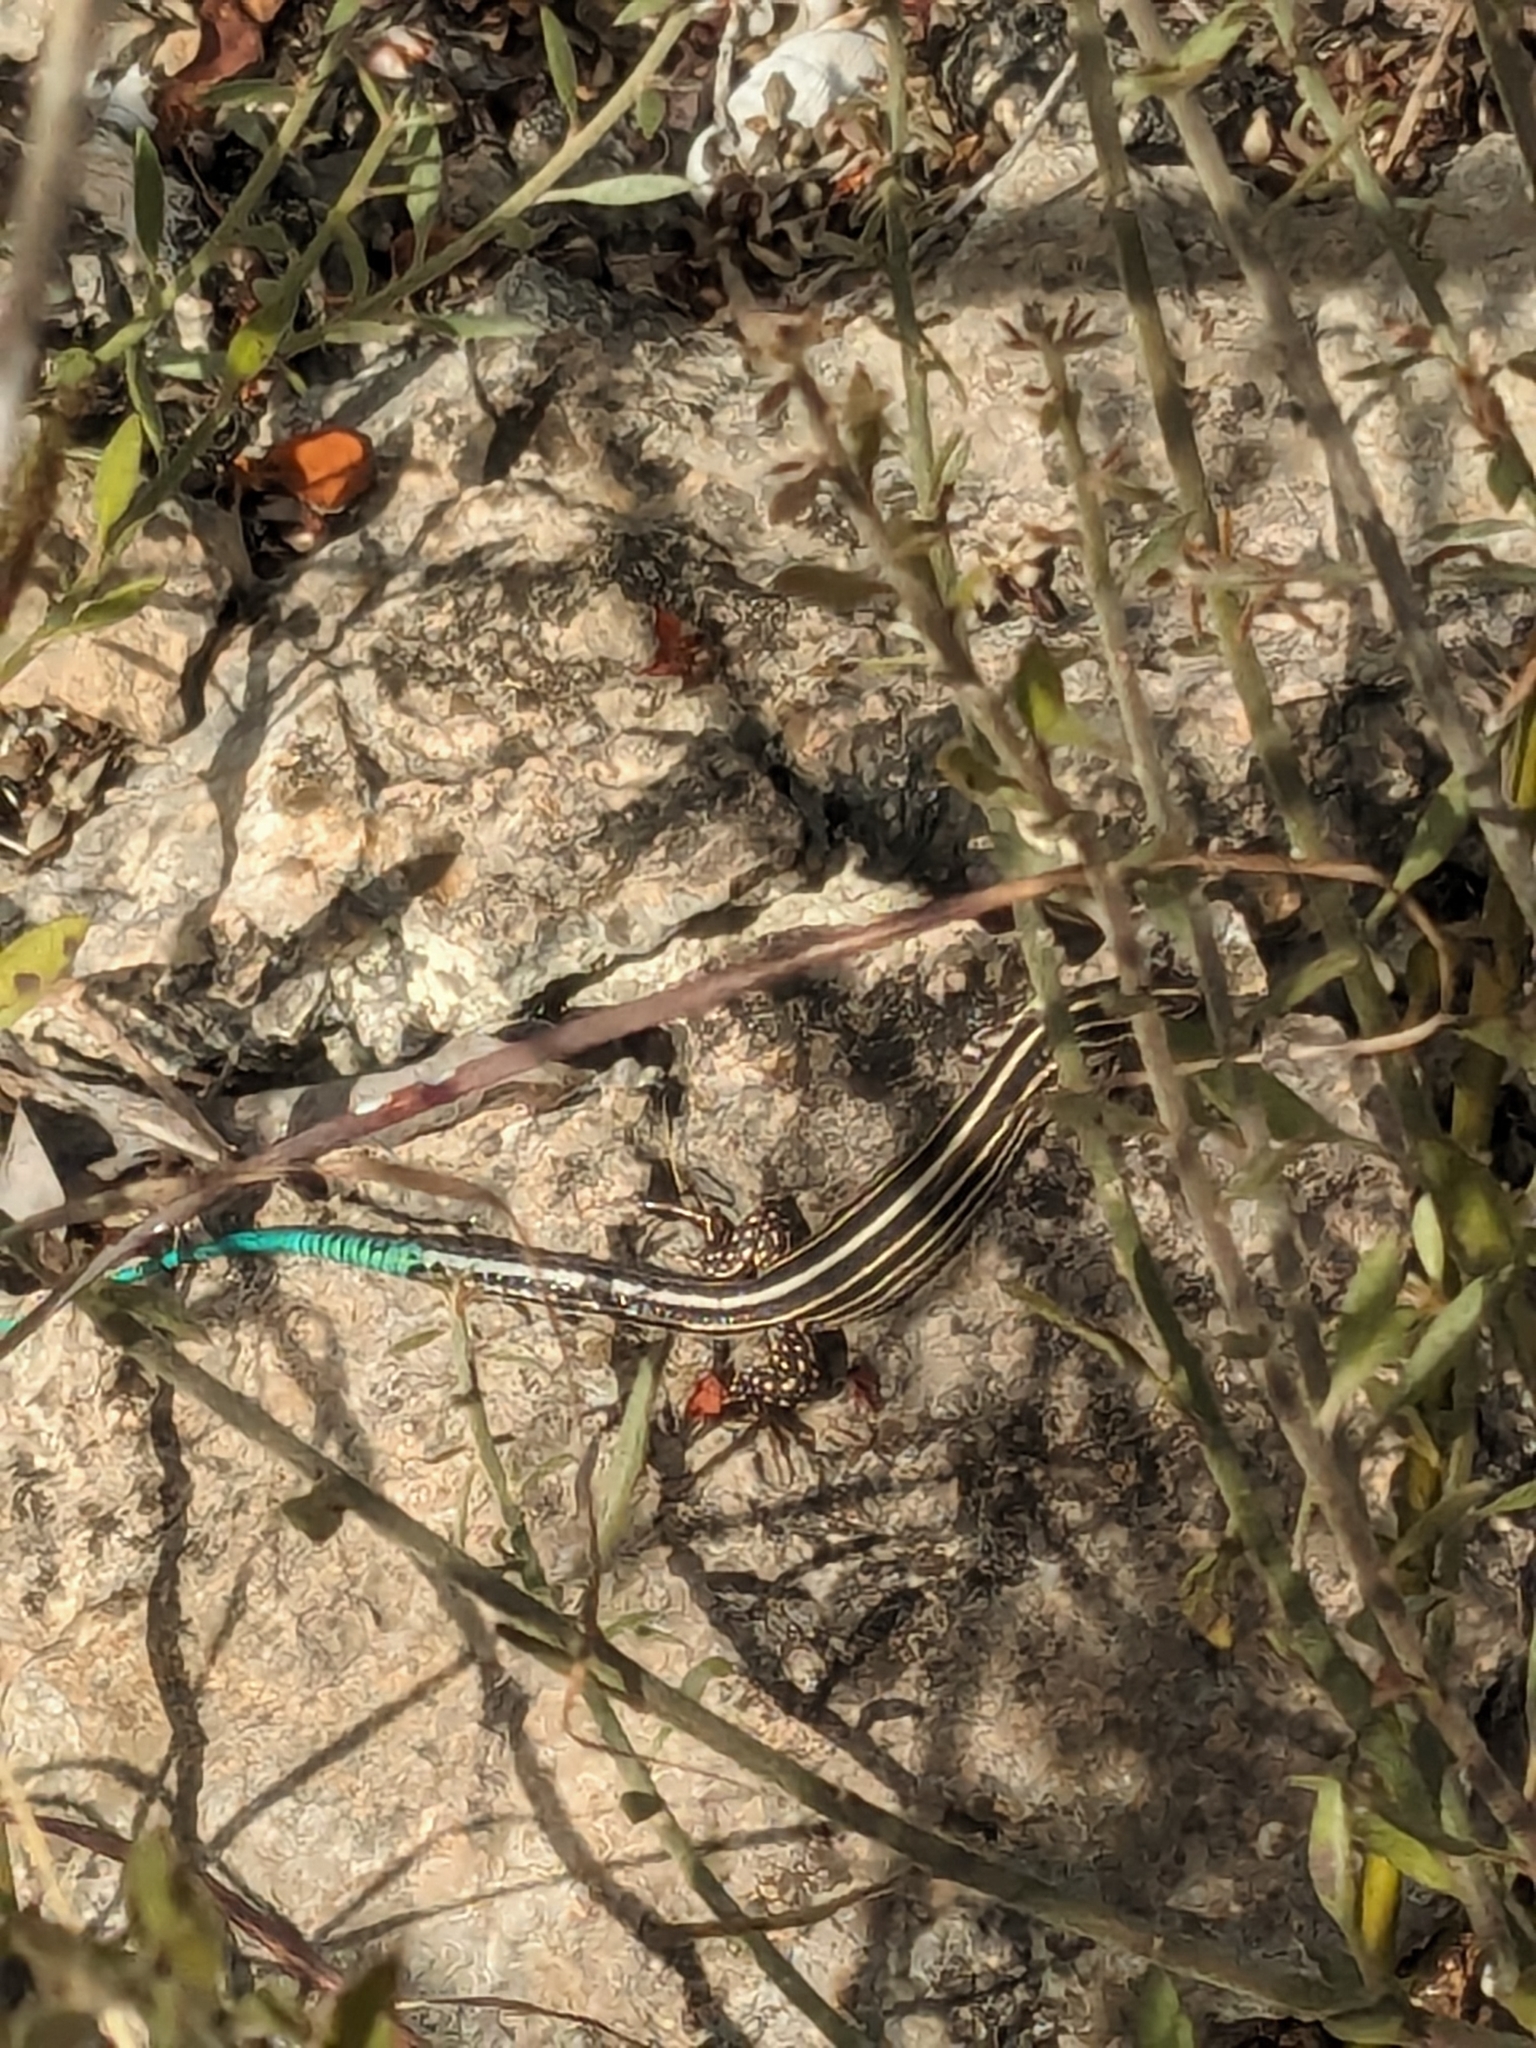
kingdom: Animalia
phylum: Chordata
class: Squamata
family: Teiidae
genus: Pholidoscelis
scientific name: Pholidoscelis wetmorei
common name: Puerto rican blue-tailed ameiva
